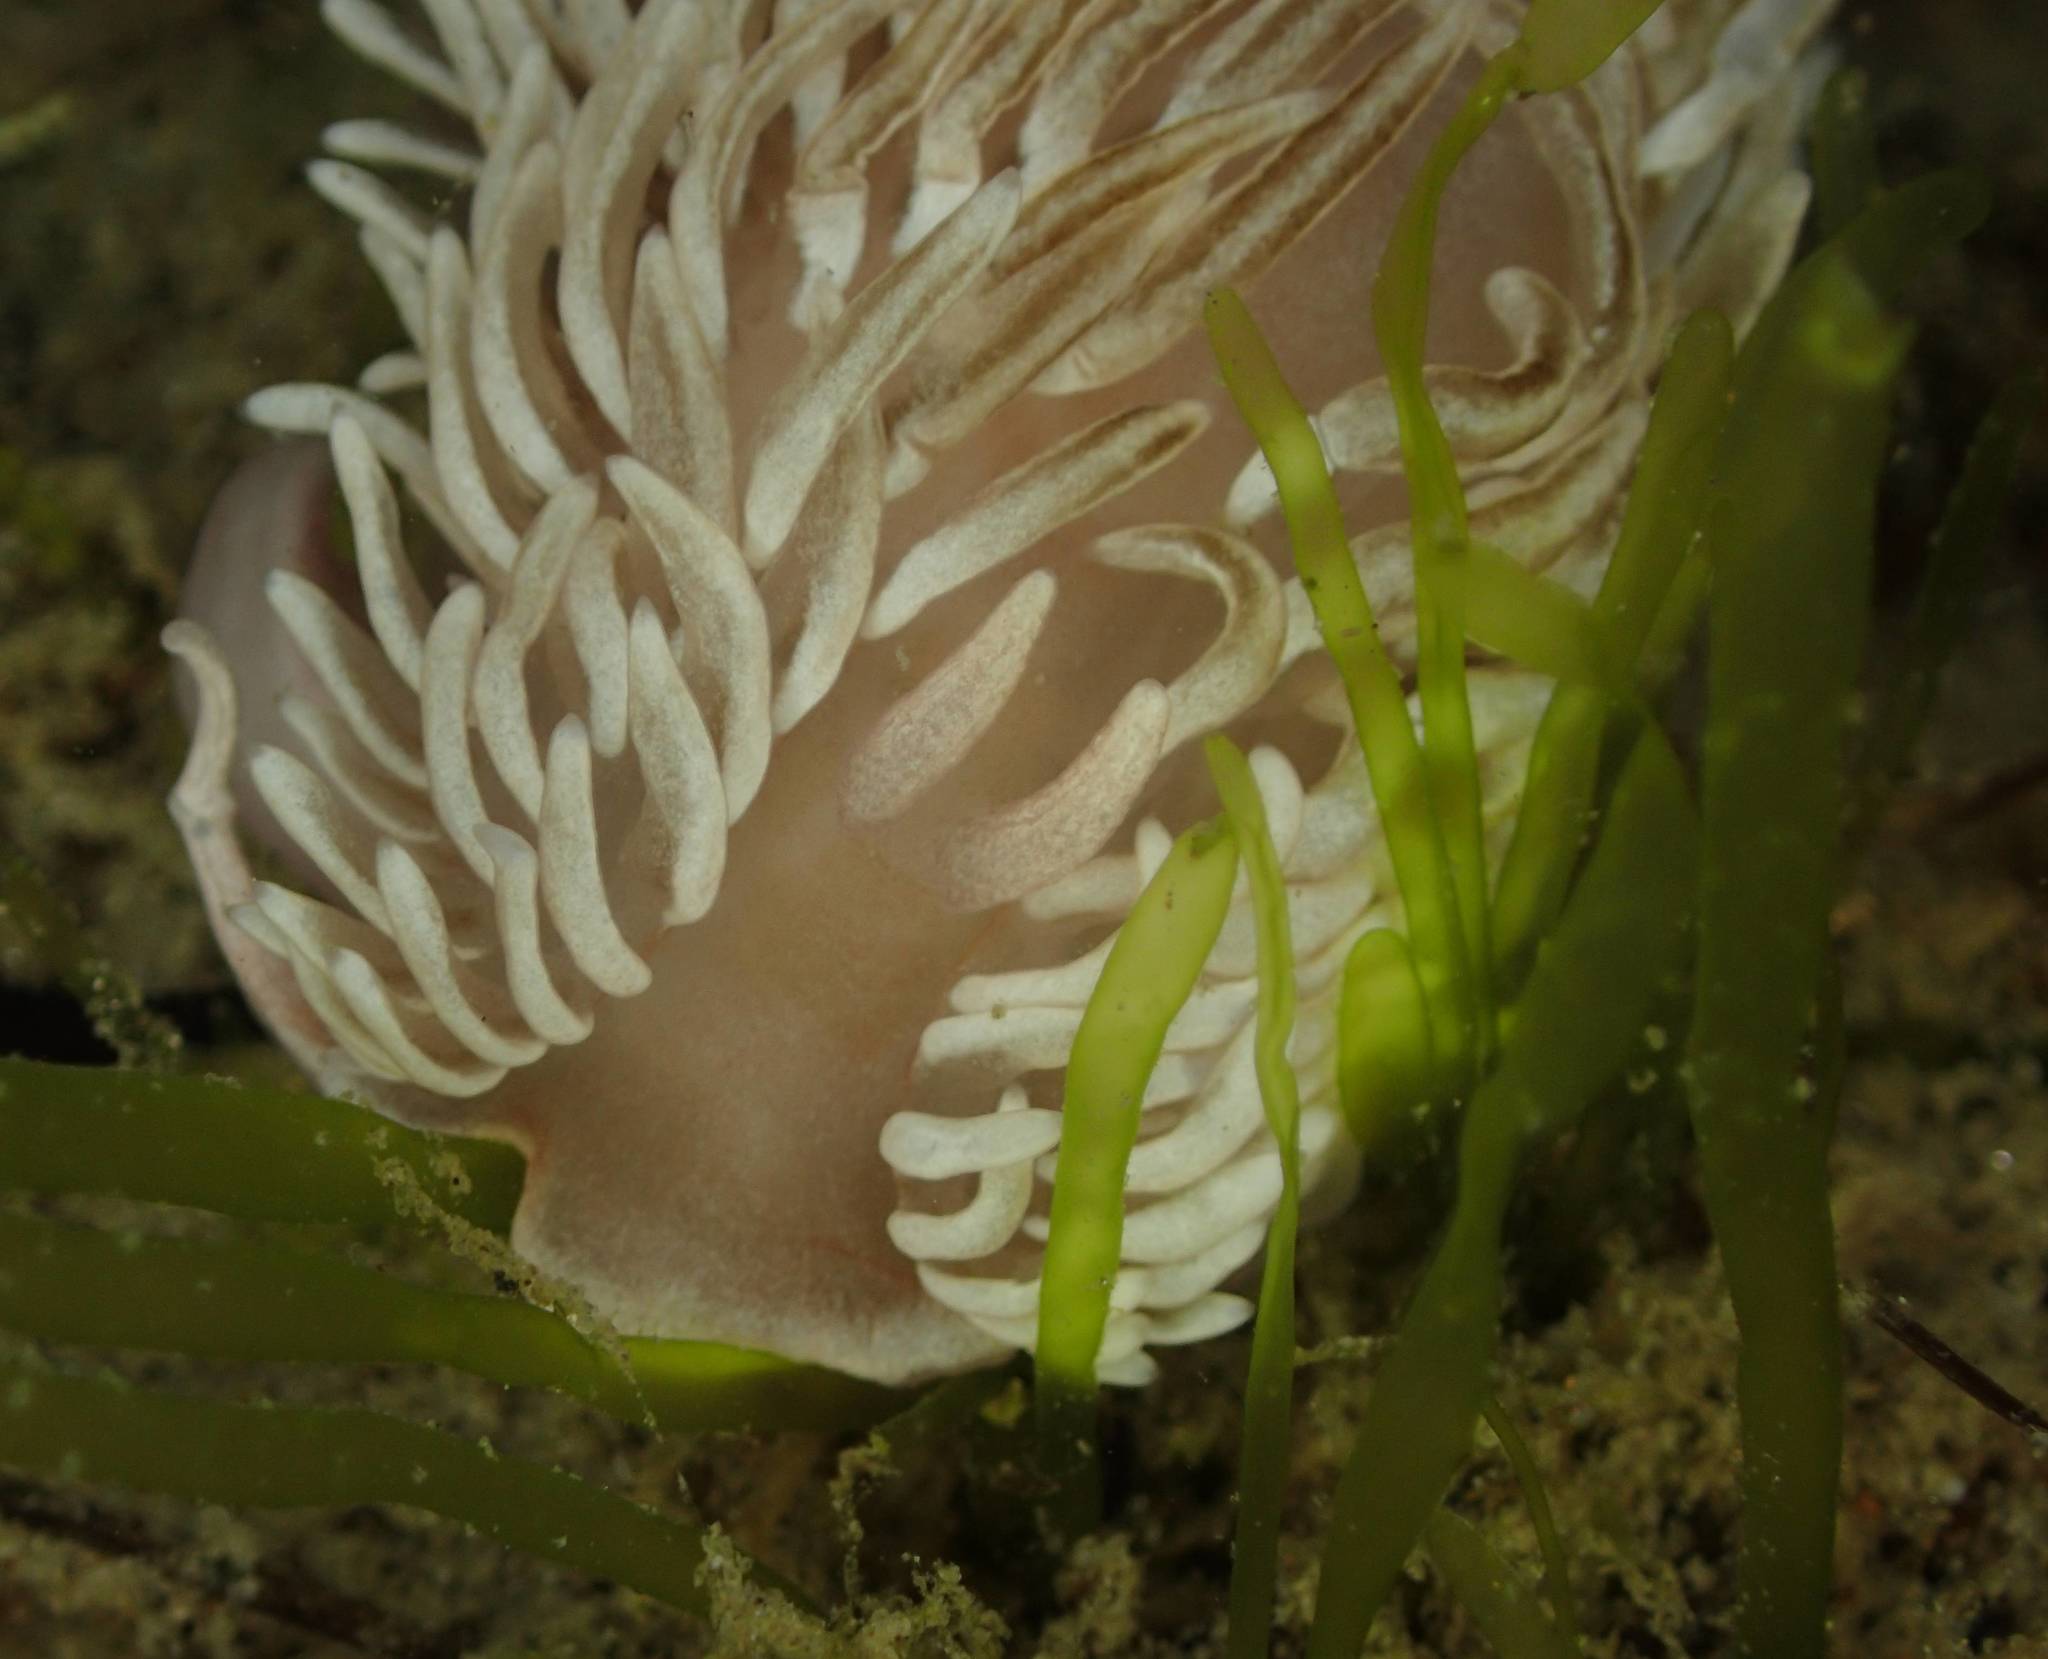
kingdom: Animalia
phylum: Mollusca
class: Gastropoda
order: Nudibranchia
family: Aeolidiidae
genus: Aeolidiella
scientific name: Aeolidiella drusilla
